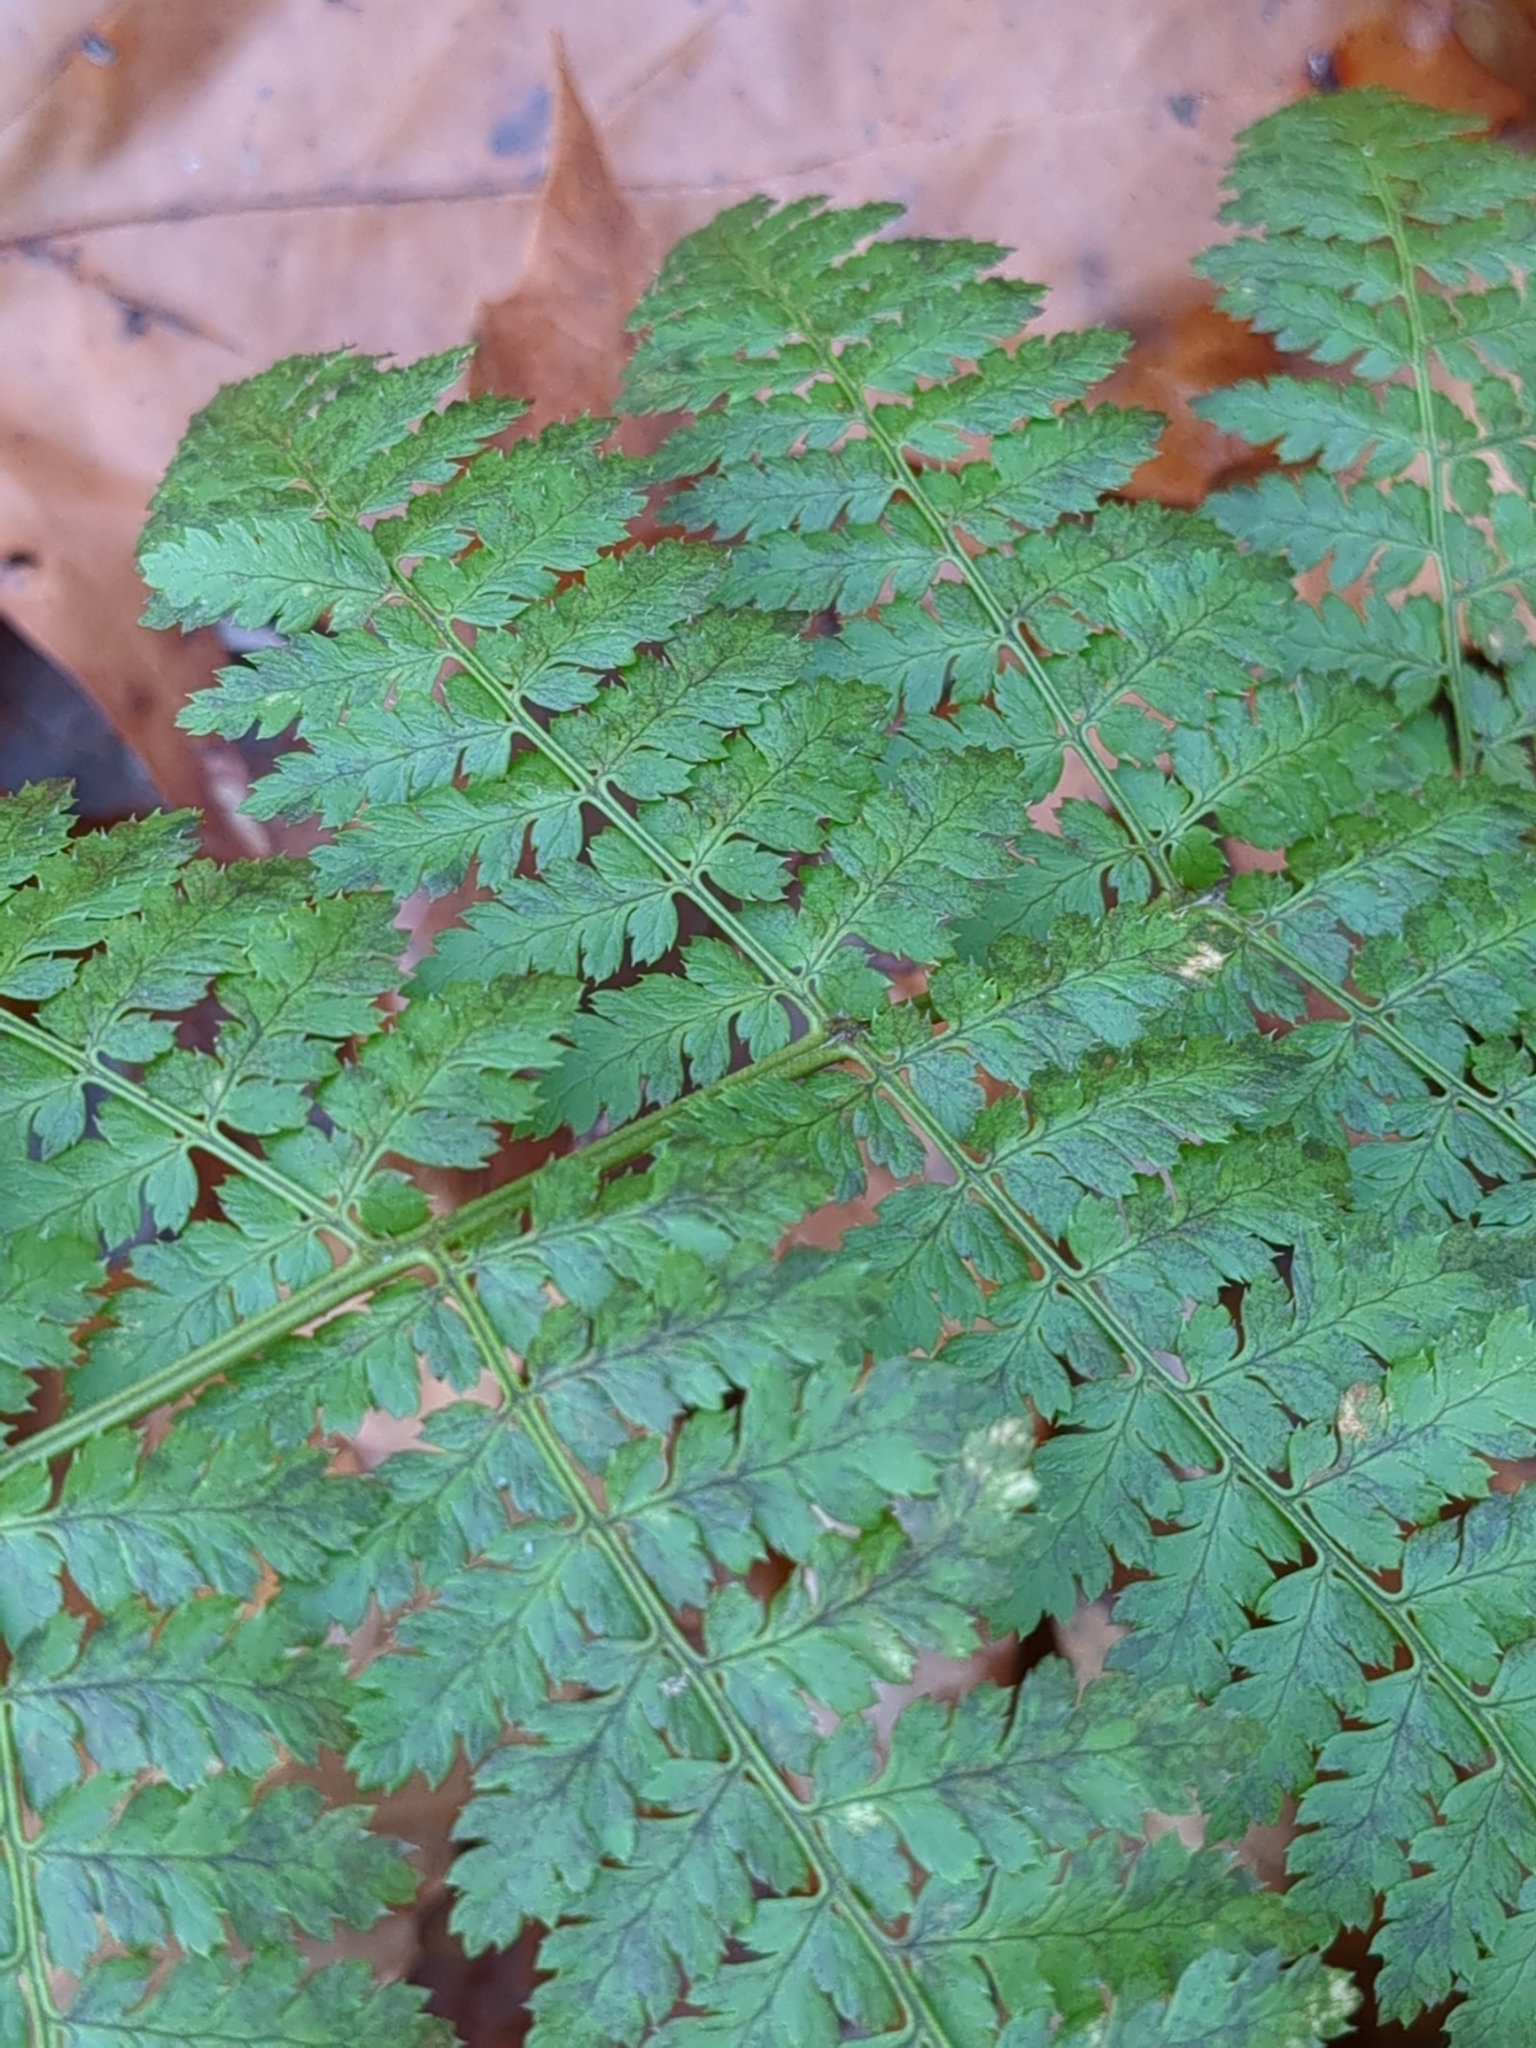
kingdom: Plantae
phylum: Tracheophyta
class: Polypodiopsida
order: Polypodiales
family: Dryopteridaceae
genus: Dryopteris
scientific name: Dryopteris intermedia
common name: Evergreen wood fern
